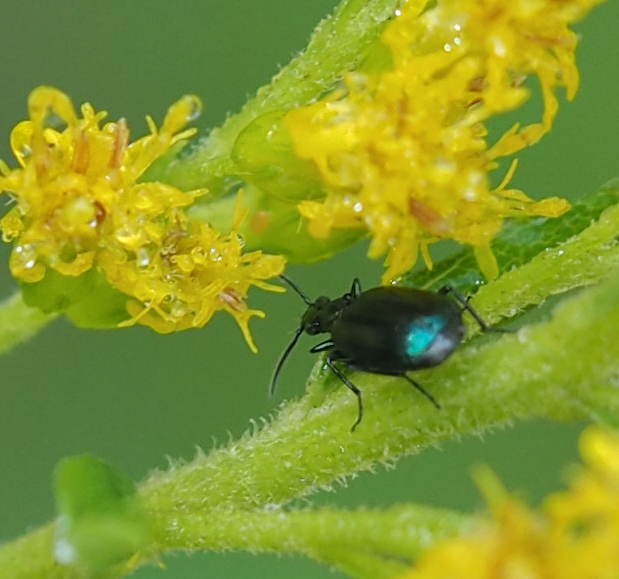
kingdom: Animalia
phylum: Arthropoda
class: Insecta
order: Coleoptera
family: Carabidae
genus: Lebia
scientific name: Lebia viridis
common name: Flower lebia beetle
